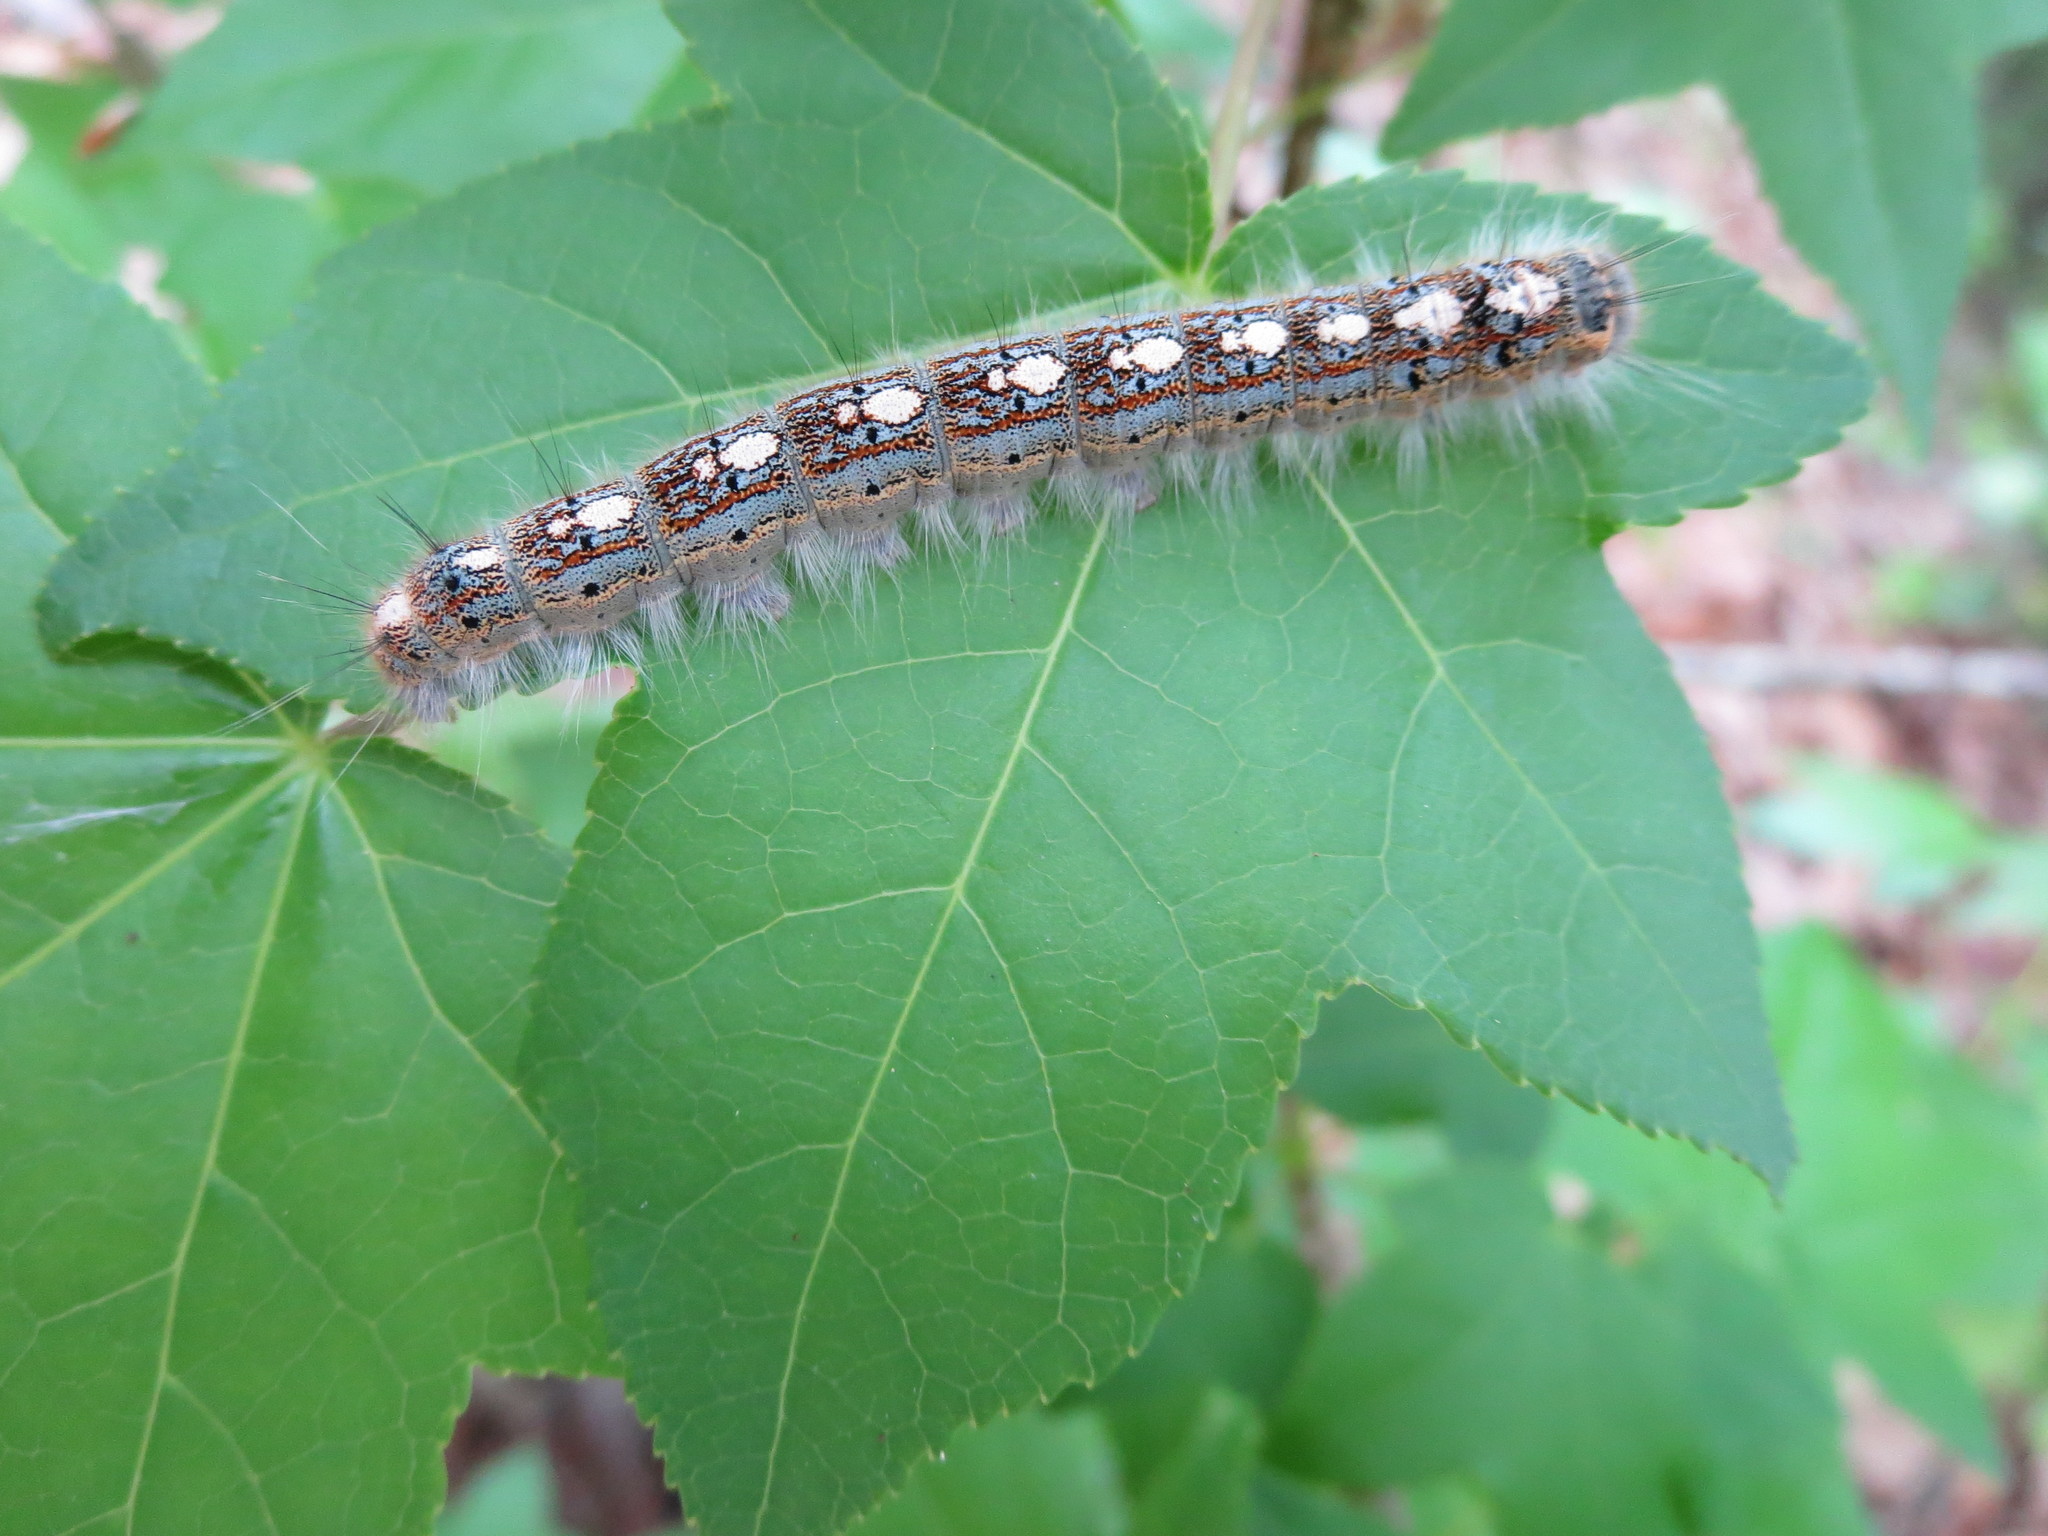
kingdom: Animalia
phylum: Arthropoda
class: Insecta
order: Lepidoptera
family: Lasiocampidae
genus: Malacosoma
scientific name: Malacosoma disstria
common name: Forest tent caterpillar
